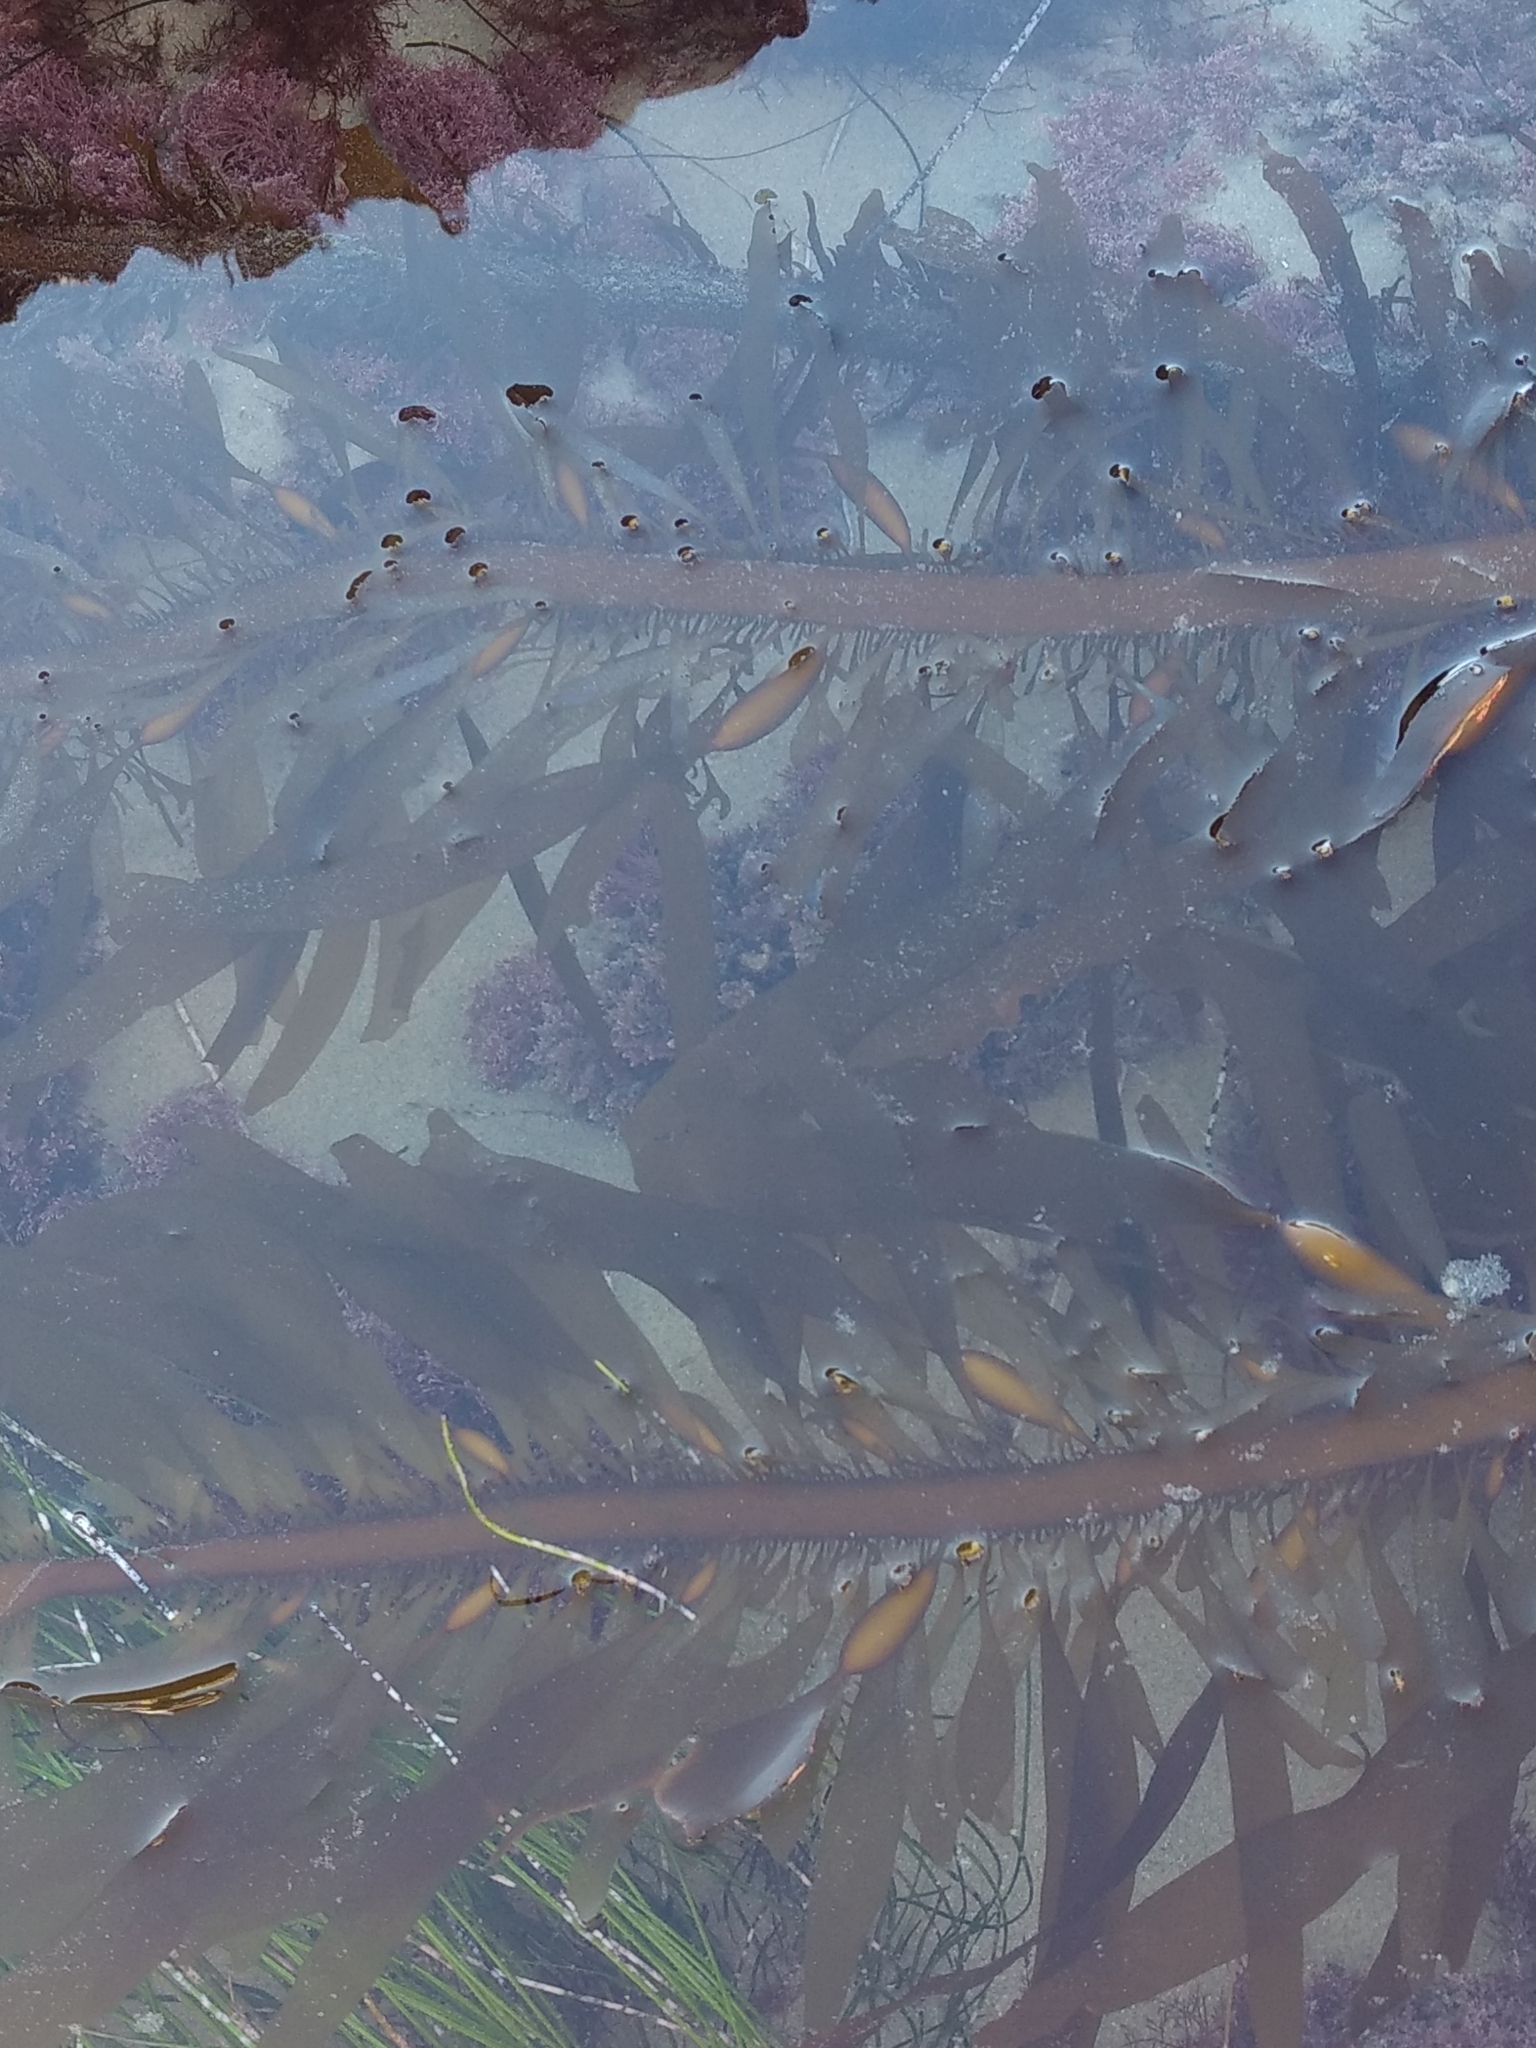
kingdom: Chromista
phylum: Ochrophyta
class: Phaeophyceae
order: Laminariales
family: Lessoniaceae
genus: Egregia
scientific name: Egregia menziesii
